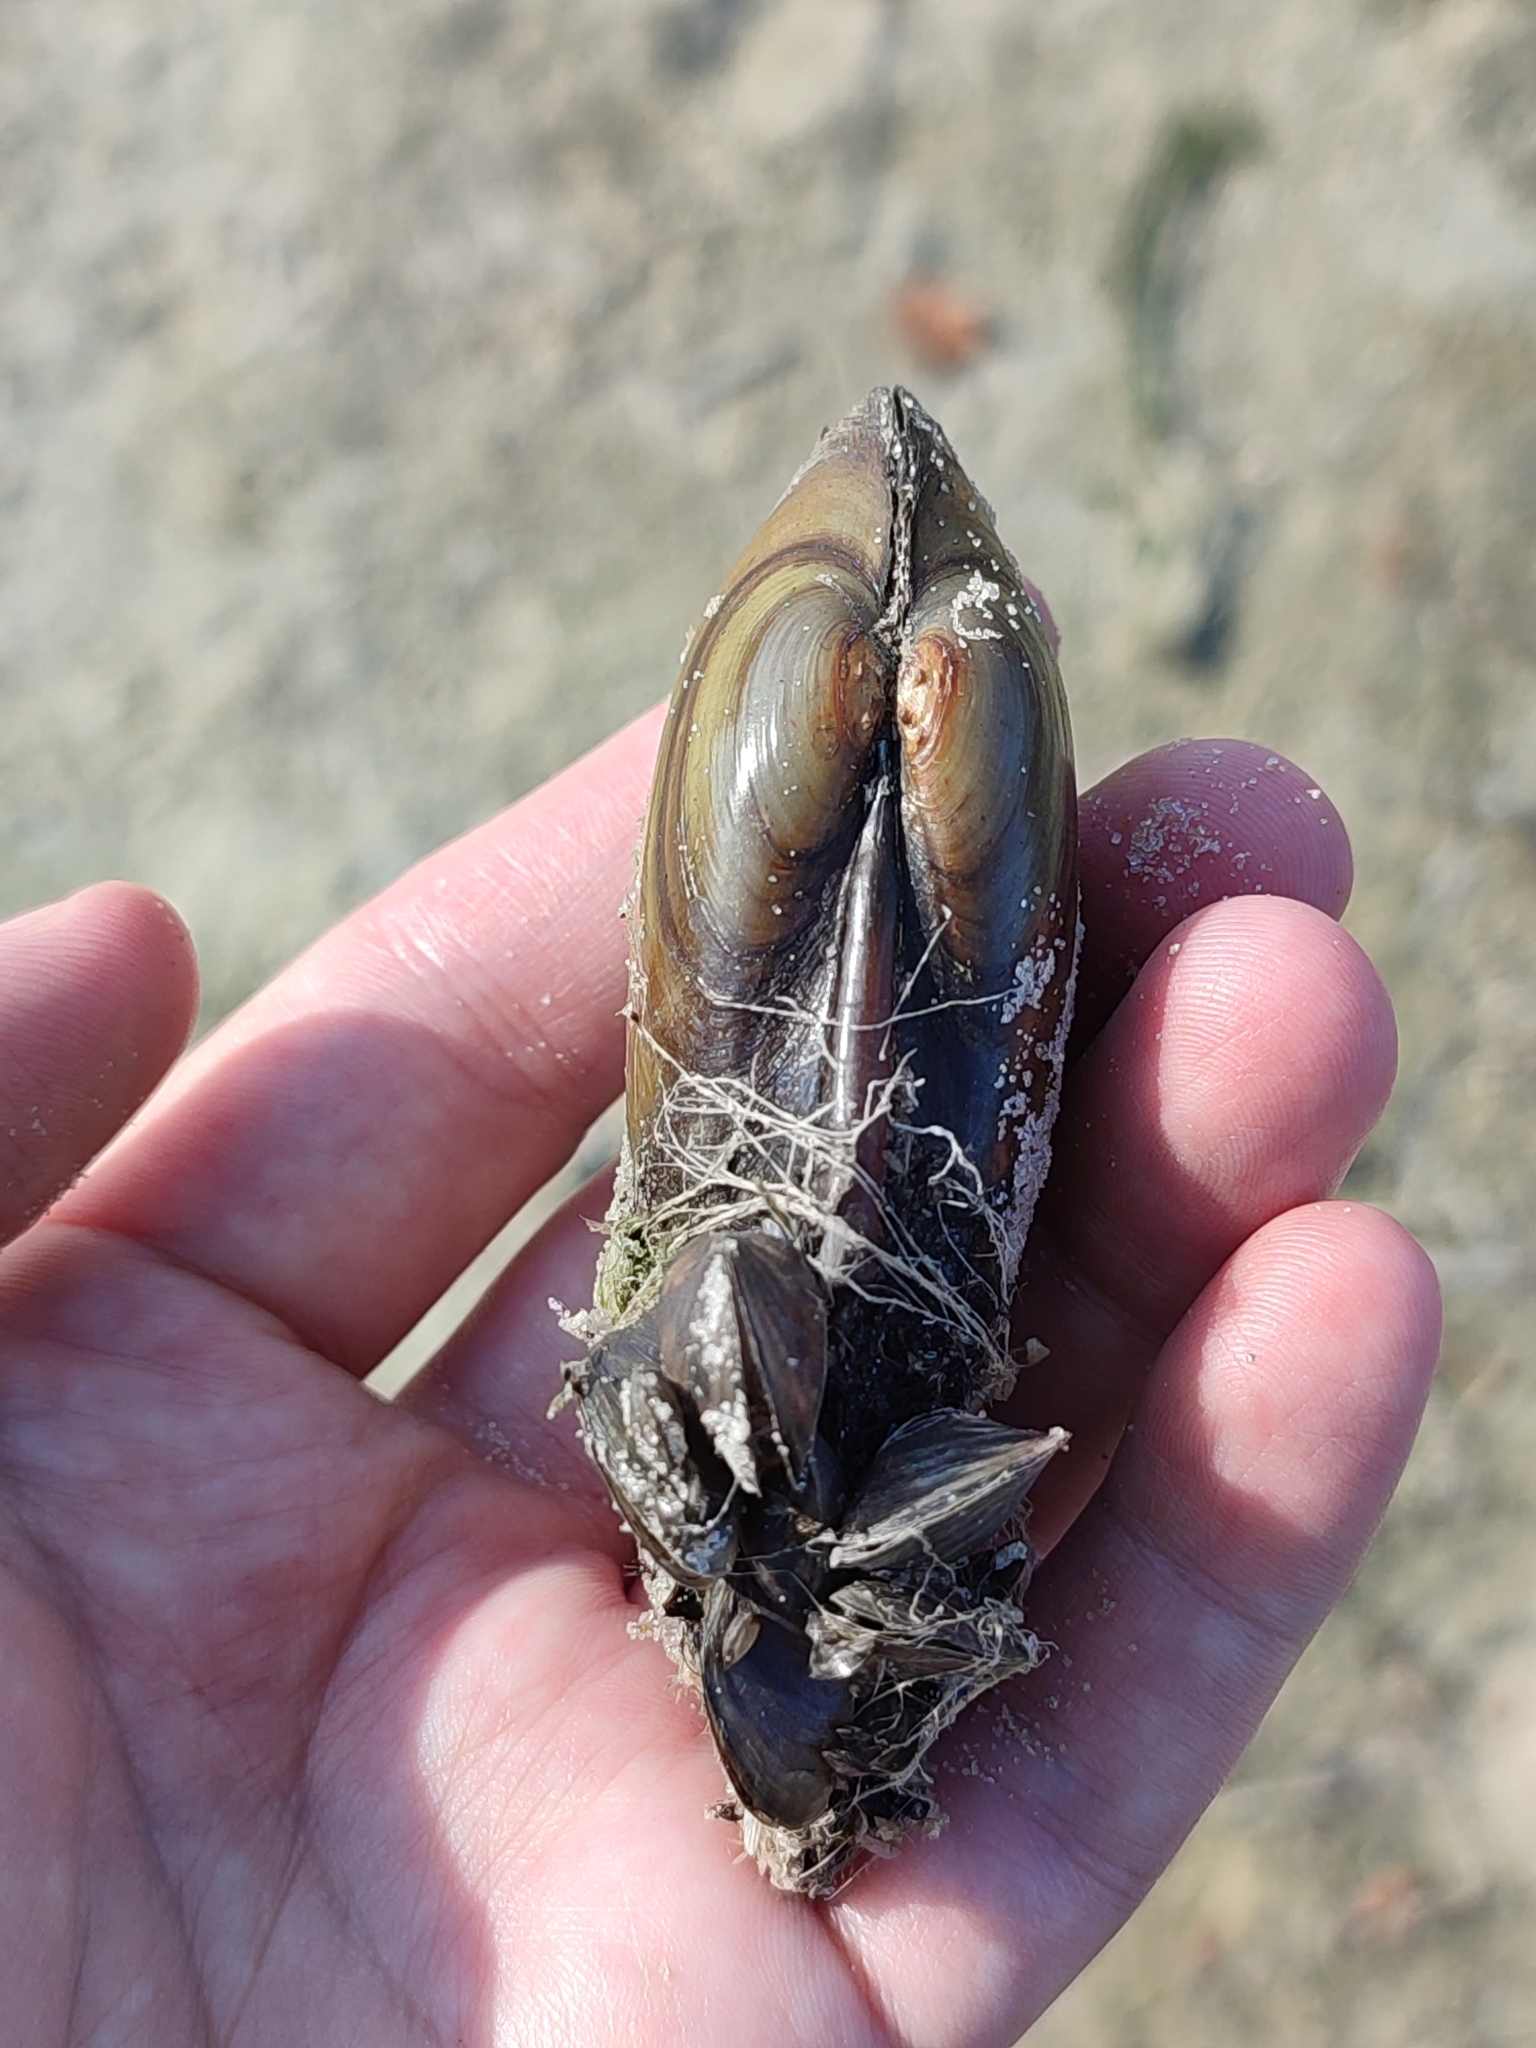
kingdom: Animalia
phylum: Mollusca
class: Bivalvia
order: Unionida
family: Unionidae
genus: Unio
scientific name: Unio pictorum
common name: Painter's mussel
